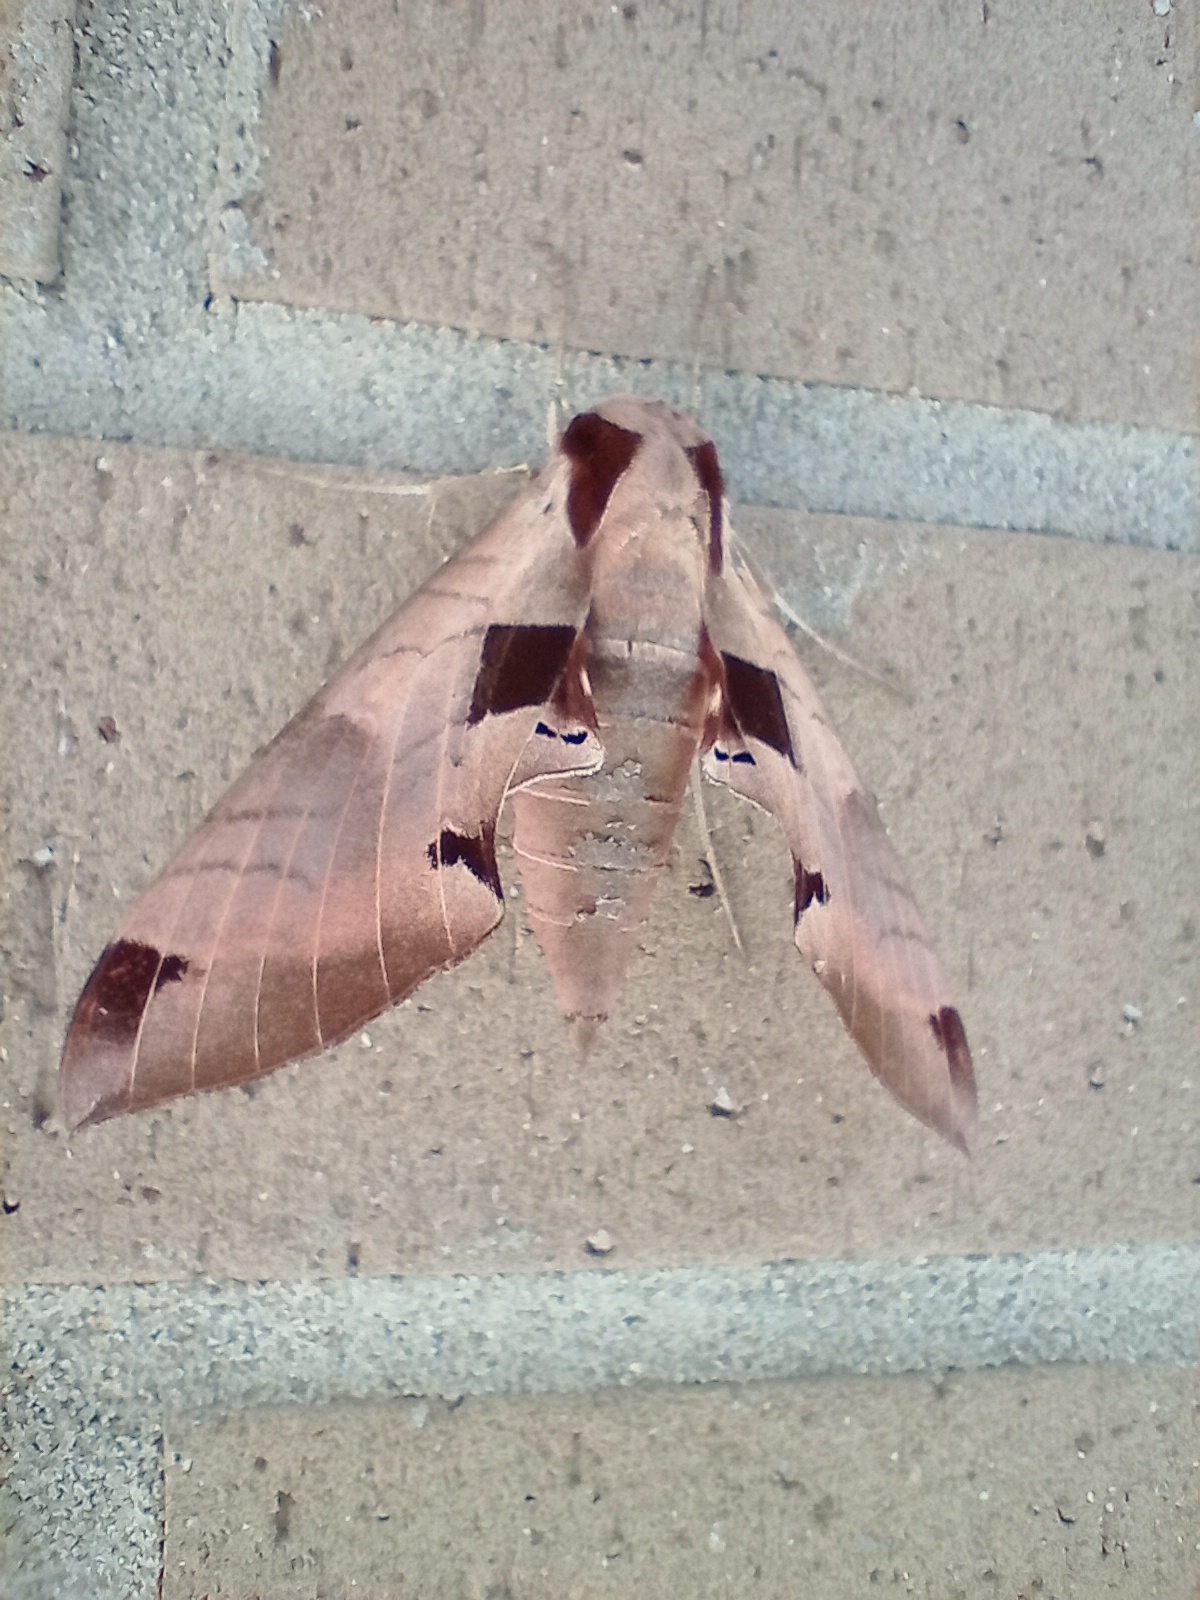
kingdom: Animalia
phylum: Arthropoda
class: Insecta
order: Lepidoptera
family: Sphingidae
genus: Eumorpha
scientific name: Eumorpha achemon
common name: Achemon sphinx
